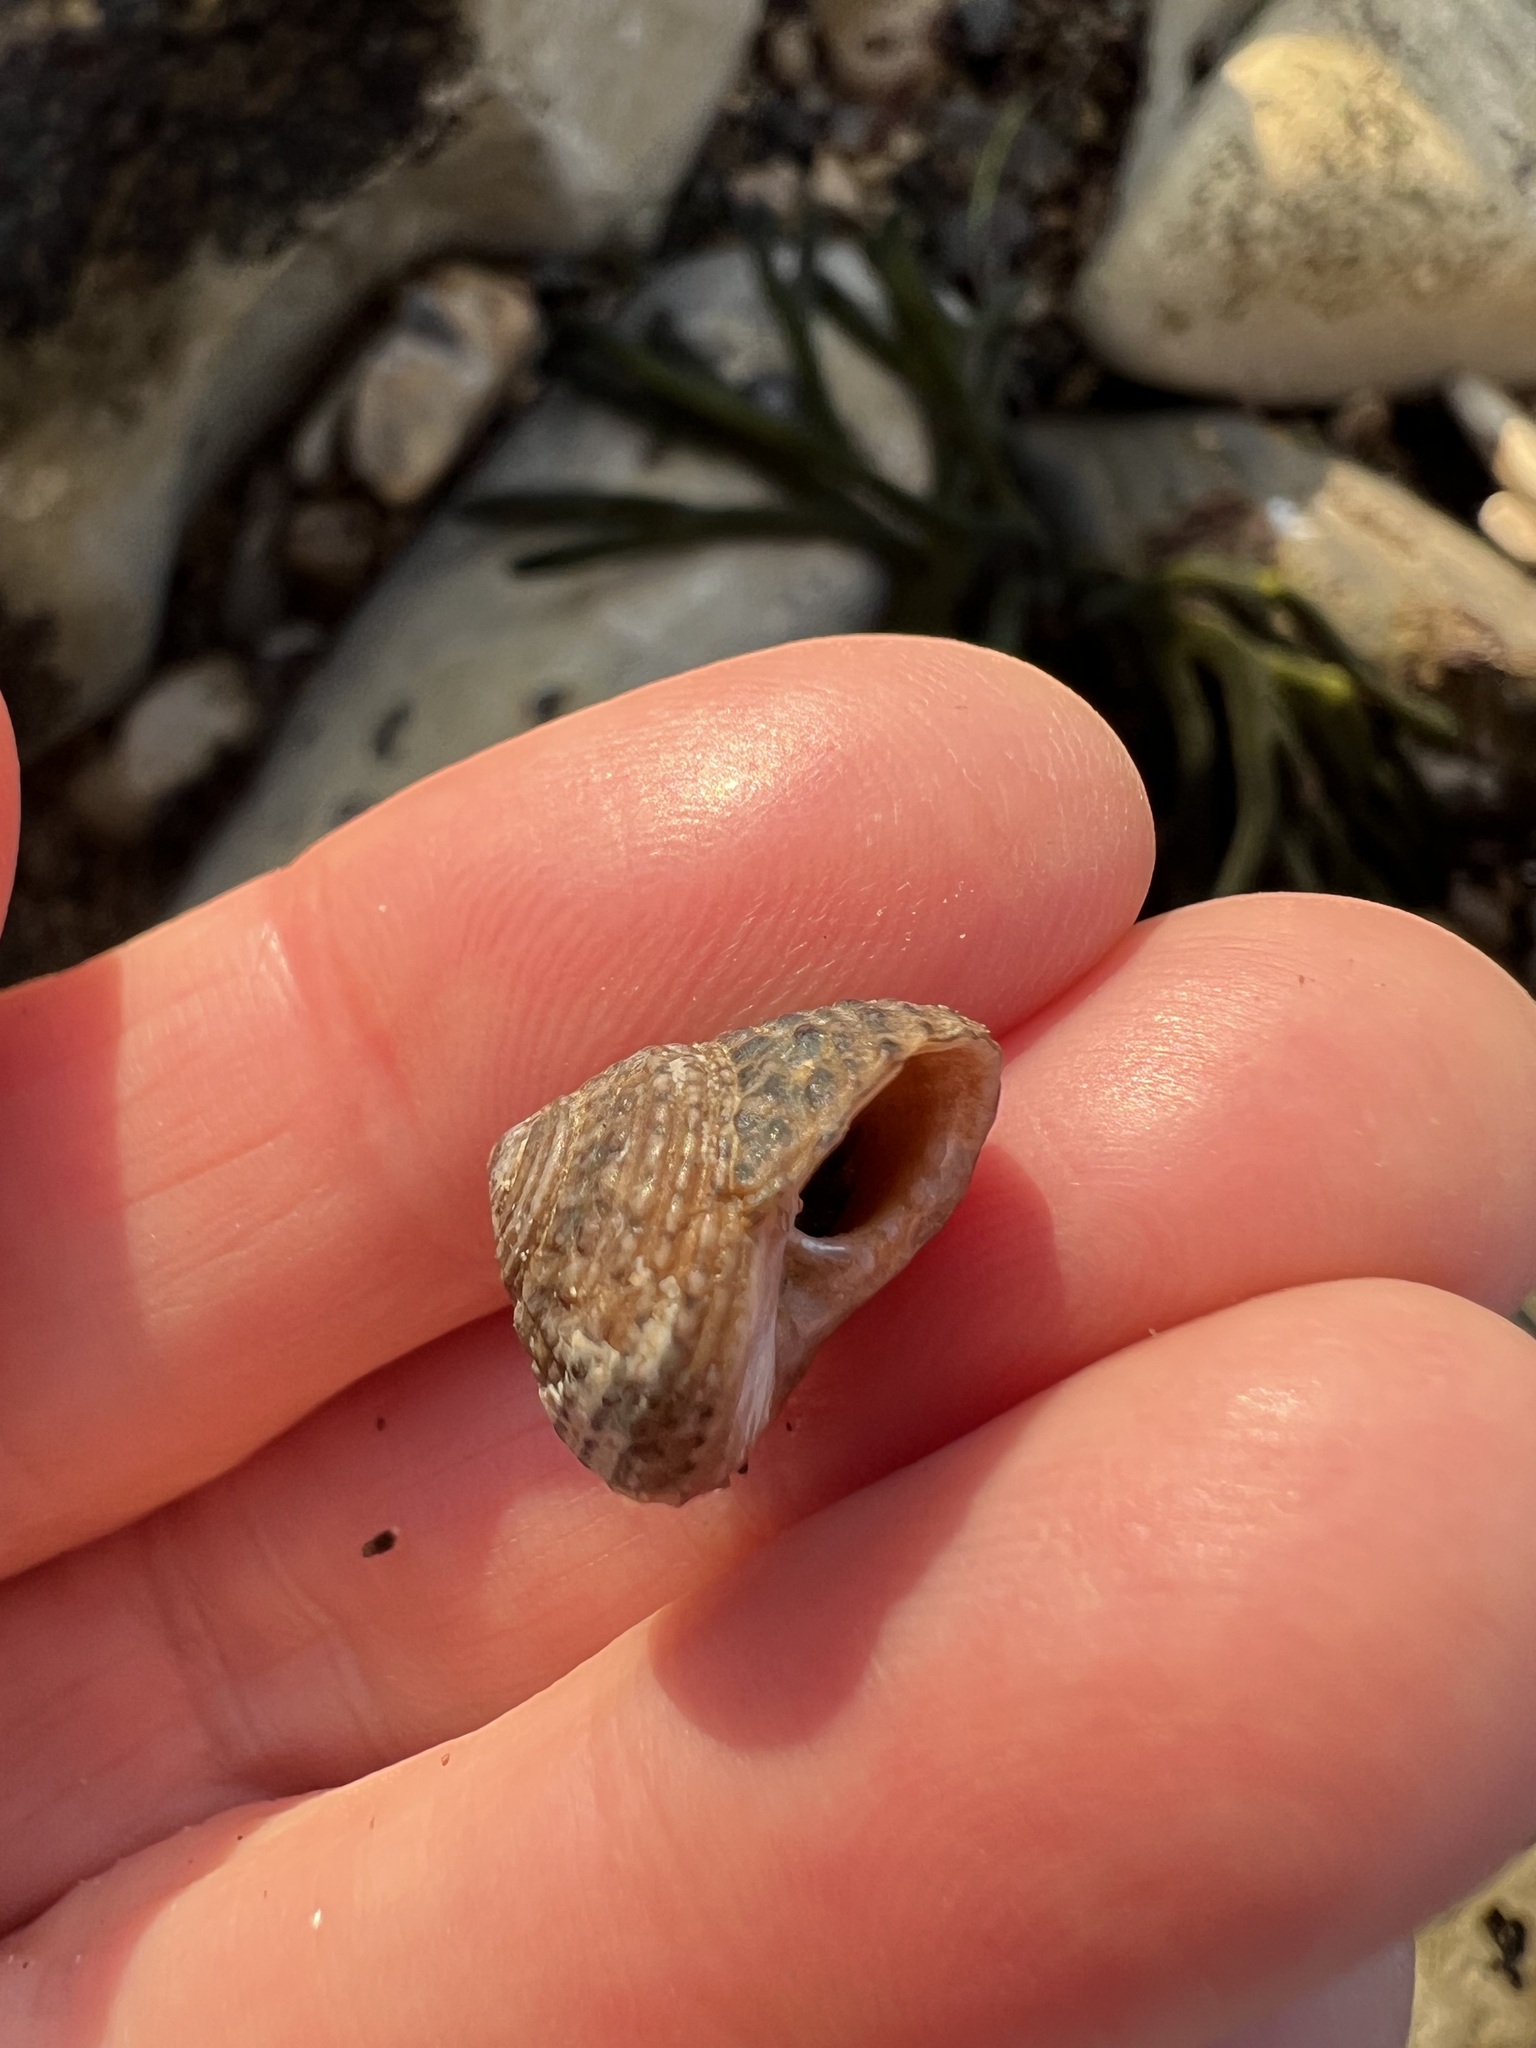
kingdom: Animalia
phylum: Mollusca
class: Gastropoda
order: Trochida
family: Tegulidae
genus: Tegula
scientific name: Tegula eiseni
